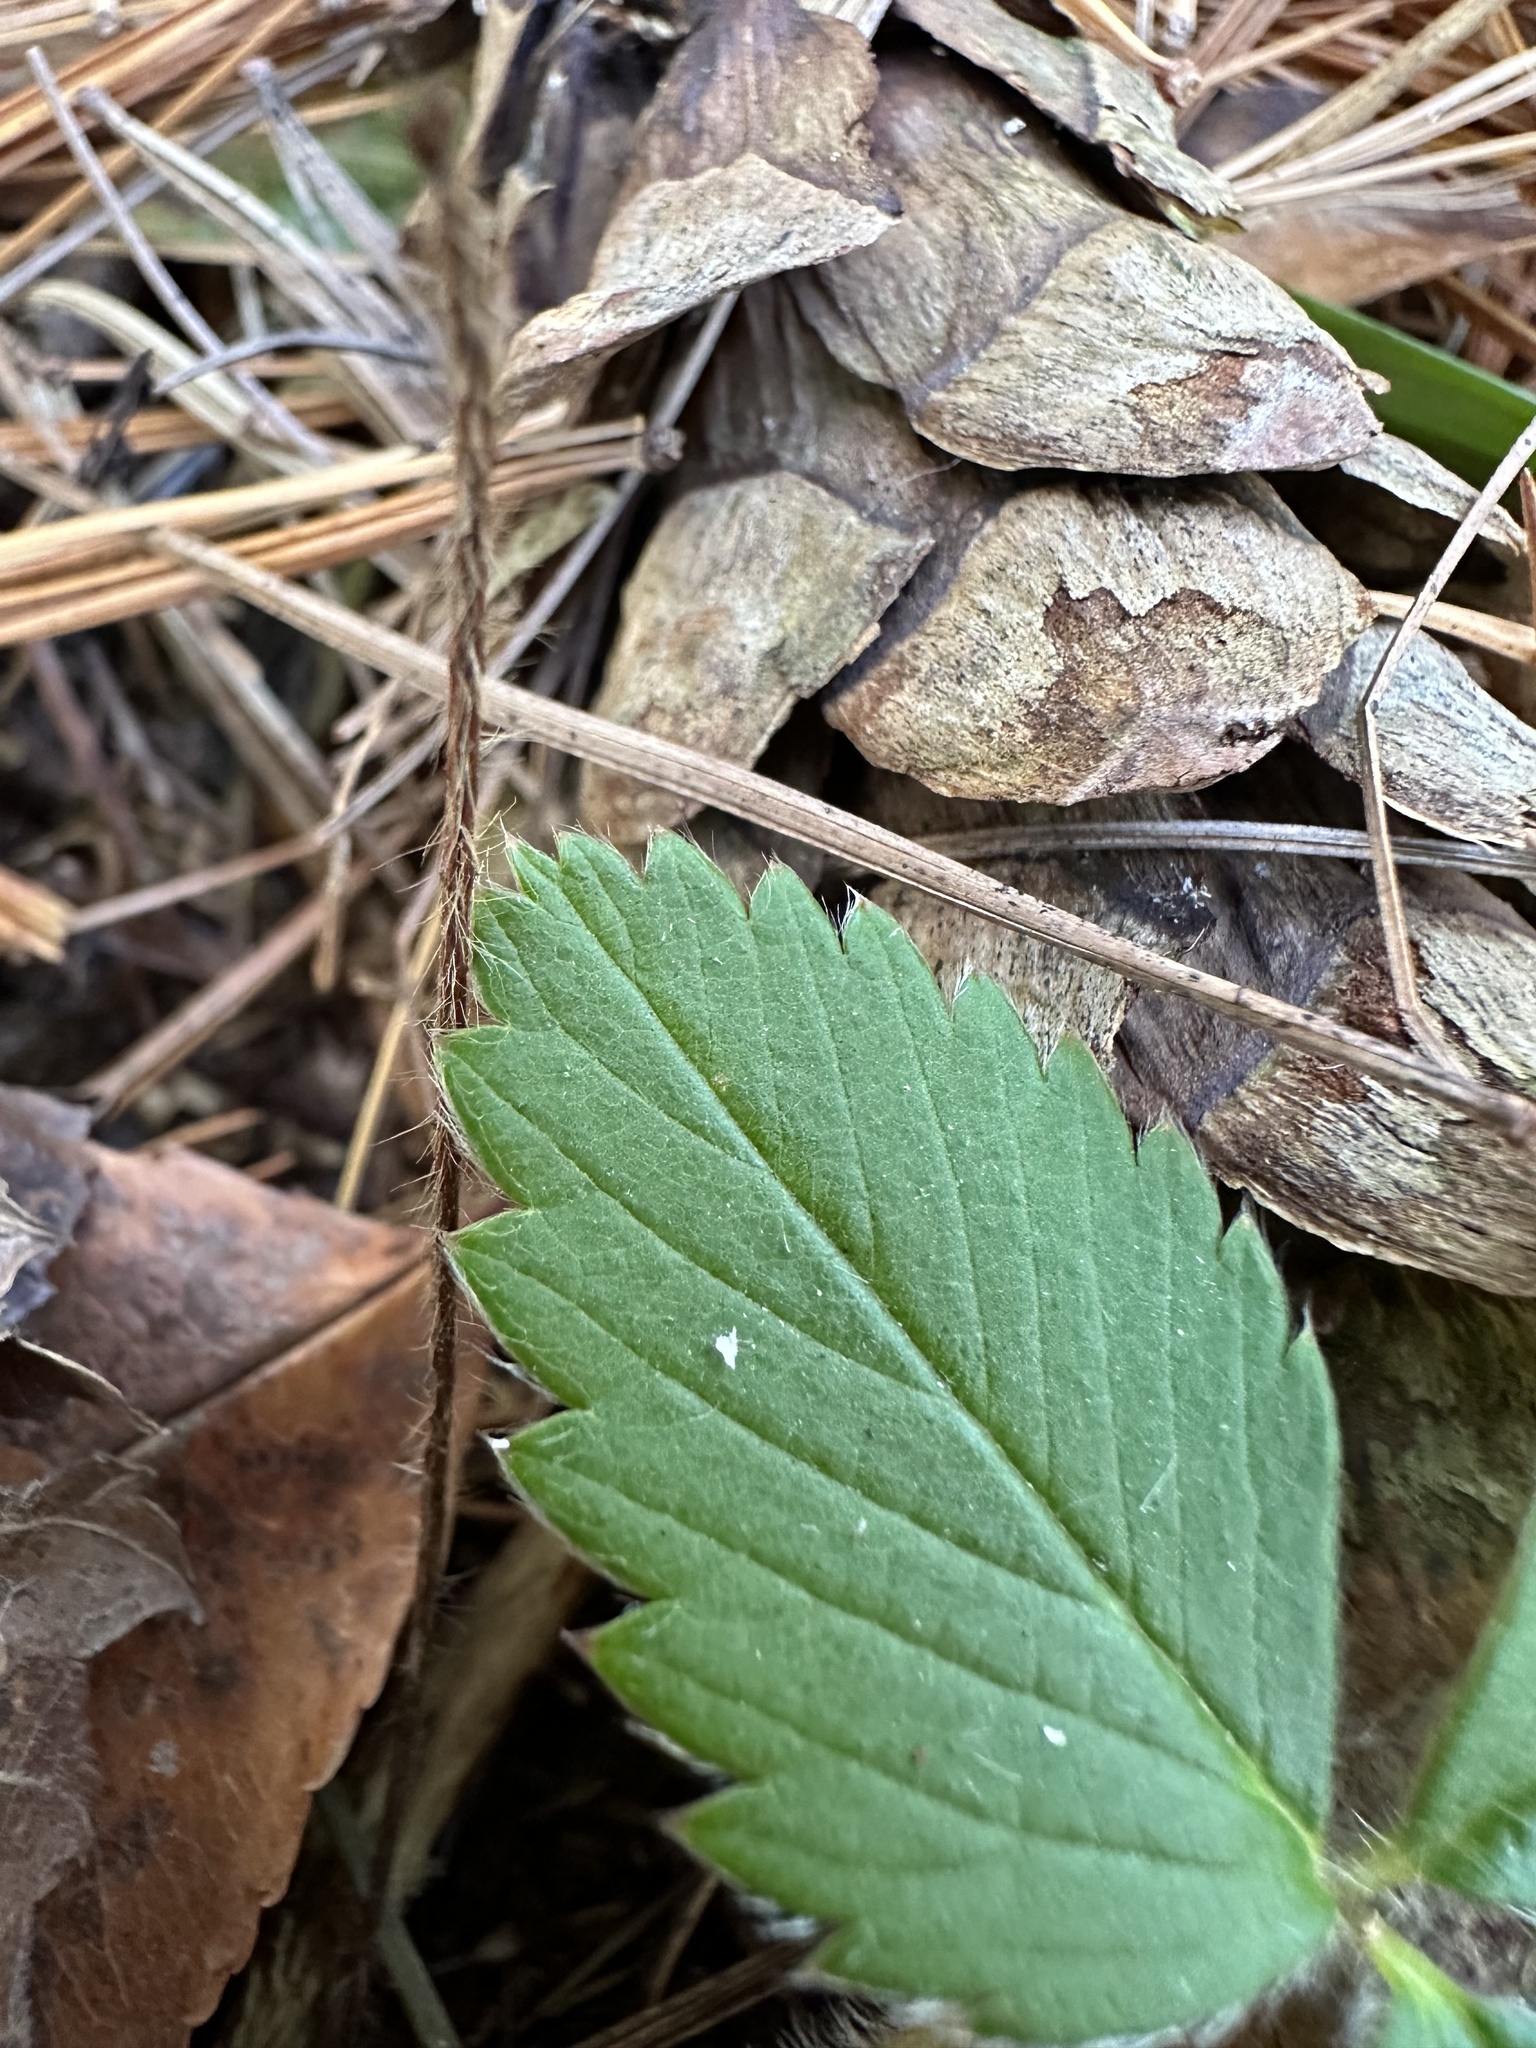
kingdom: Plantae
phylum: Tracheophyta
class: Magnoliopsida
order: Rosales
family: Rosaceae
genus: Fragaria
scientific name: Fragaria virginiana
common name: Thickleaved wild strawberry
